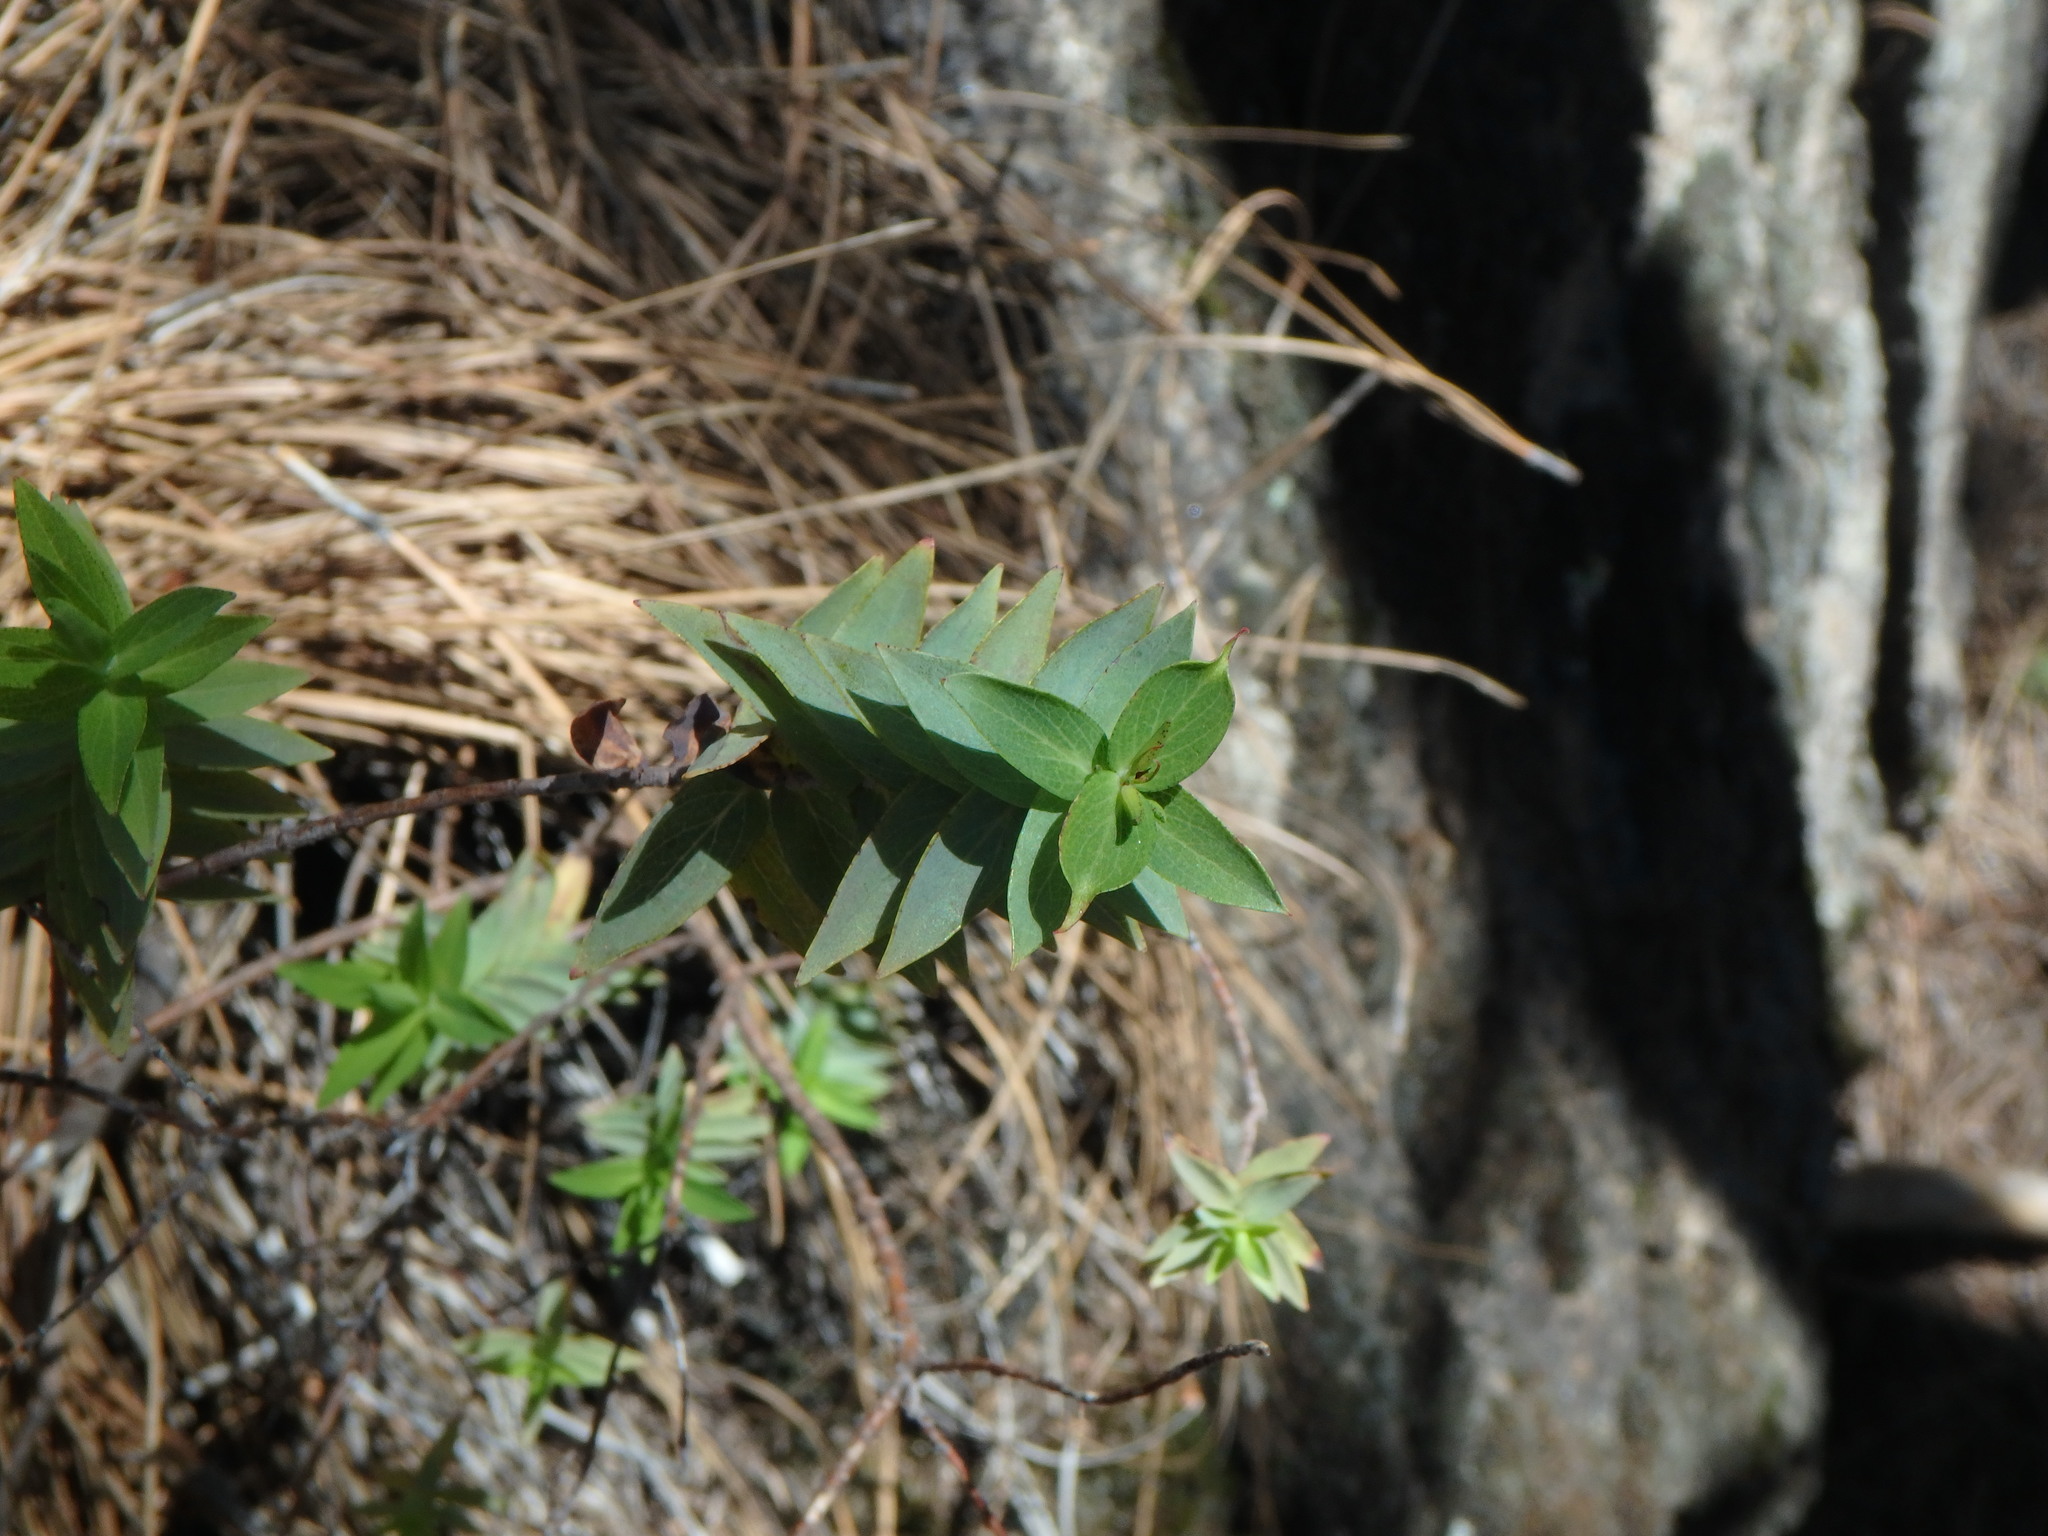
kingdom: Plantae
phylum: Tracheophyta
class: Magnoliopsida
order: Malpighiales
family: Hypericaceae
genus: Hypericum
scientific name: Hypericum reflexum
